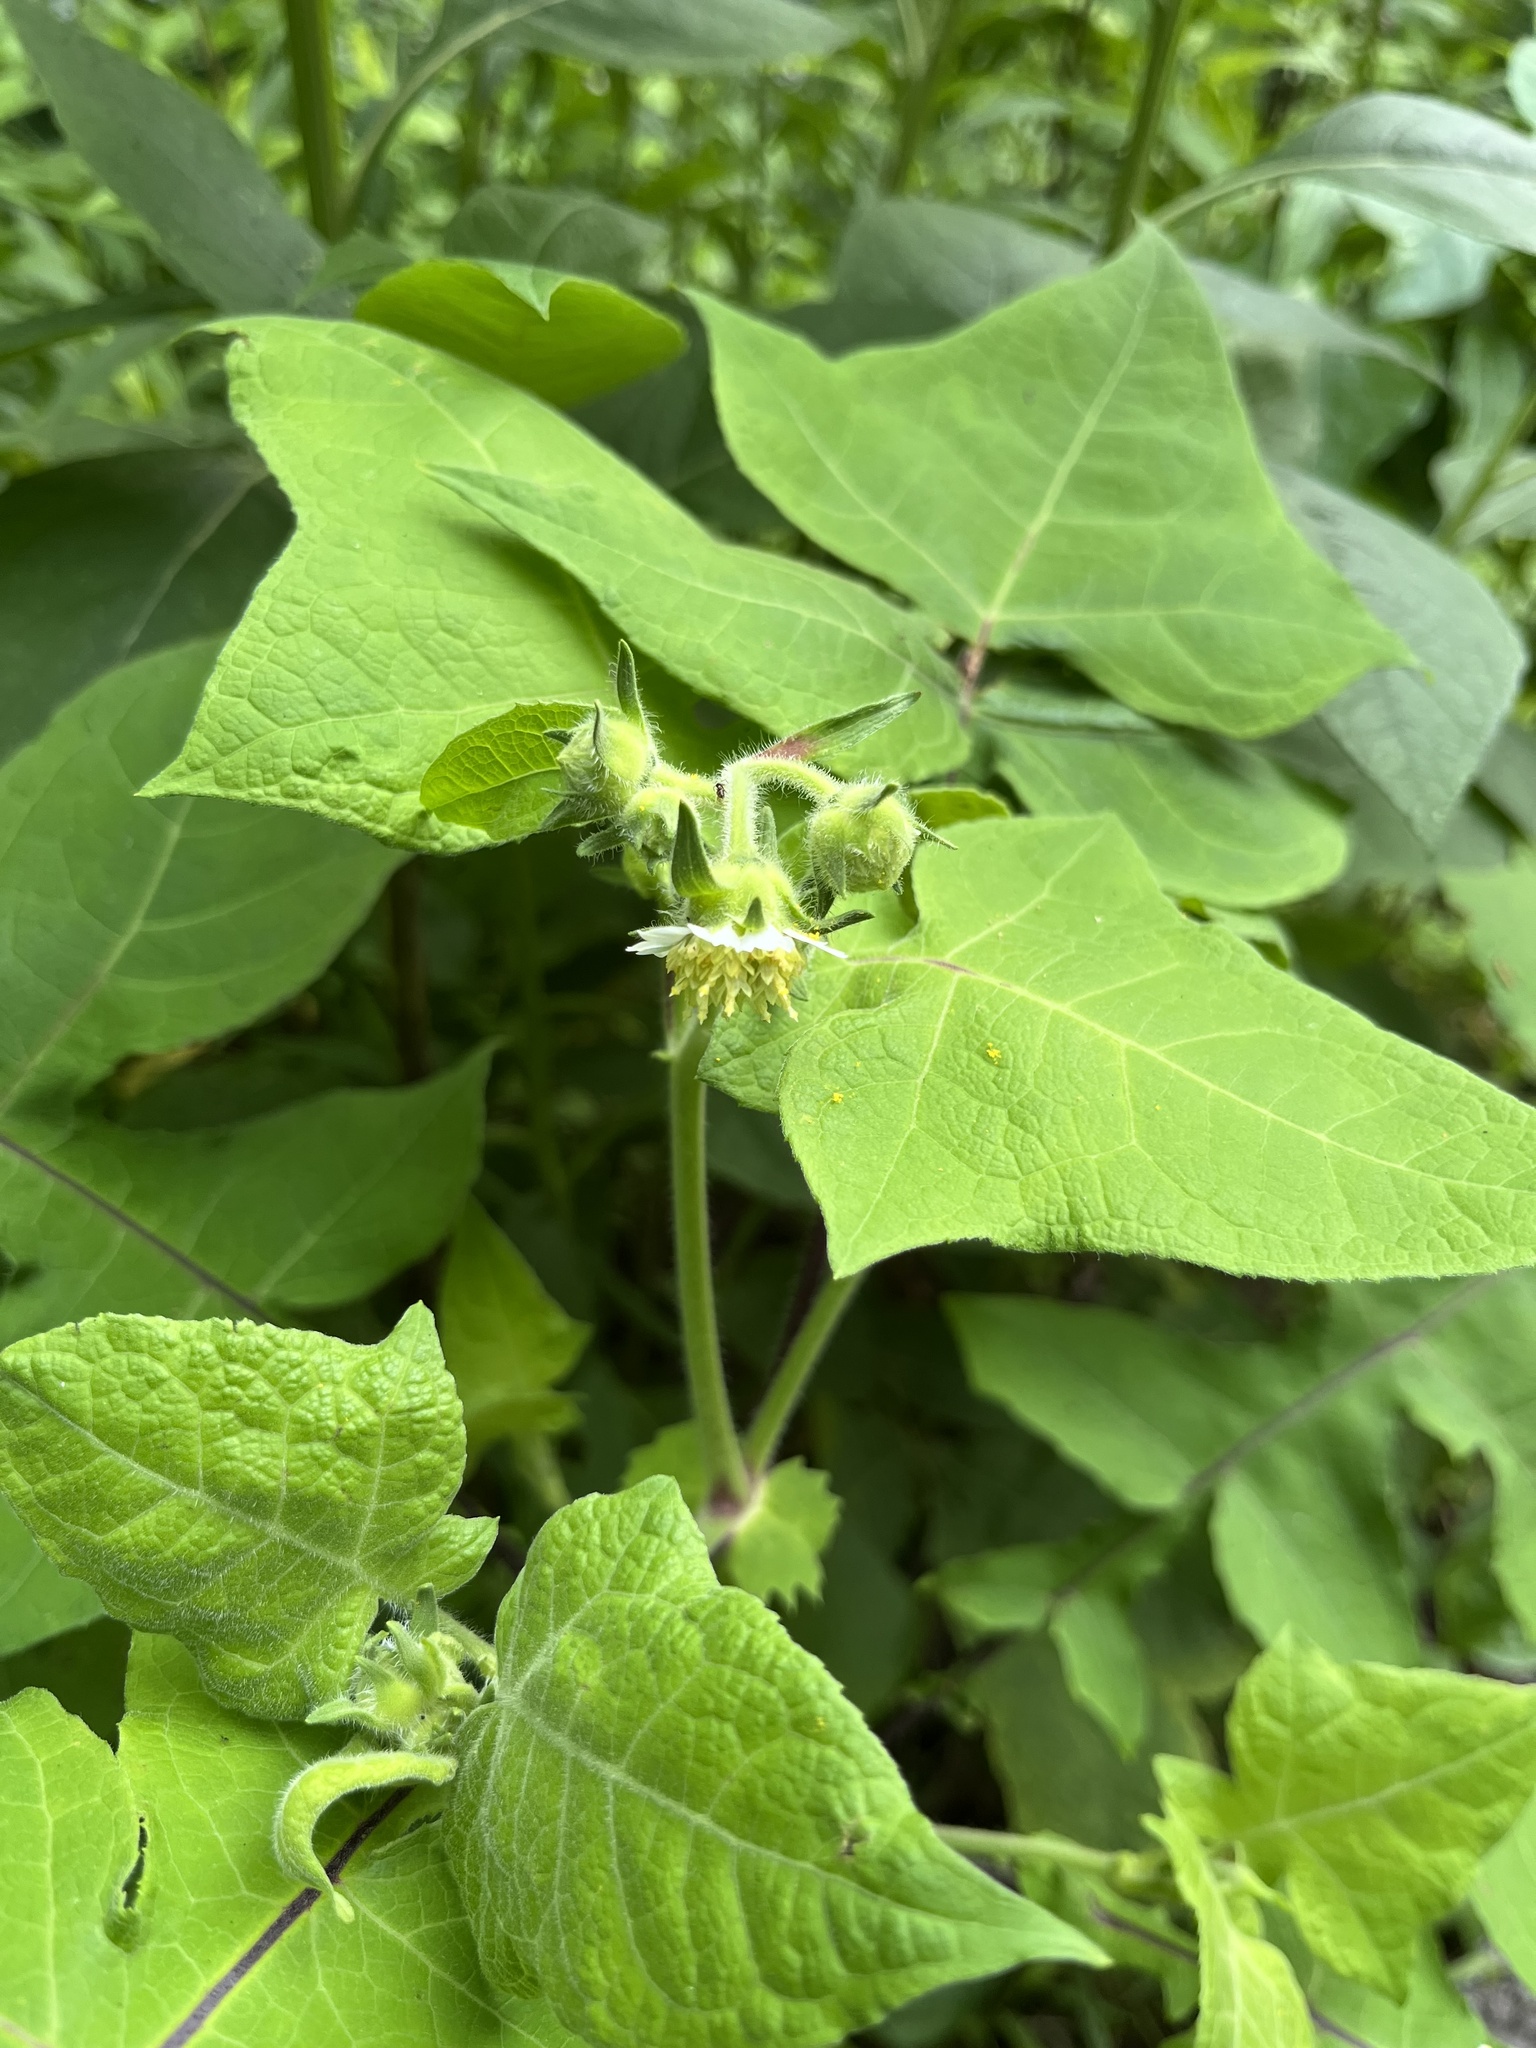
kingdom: Plantae
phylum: Tracheophyta
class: Magnoliopsida
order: Asterales
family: Asteraceae
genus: Polymnia
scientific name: Polymnia canadensis
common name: Pale-flowered leafcup
